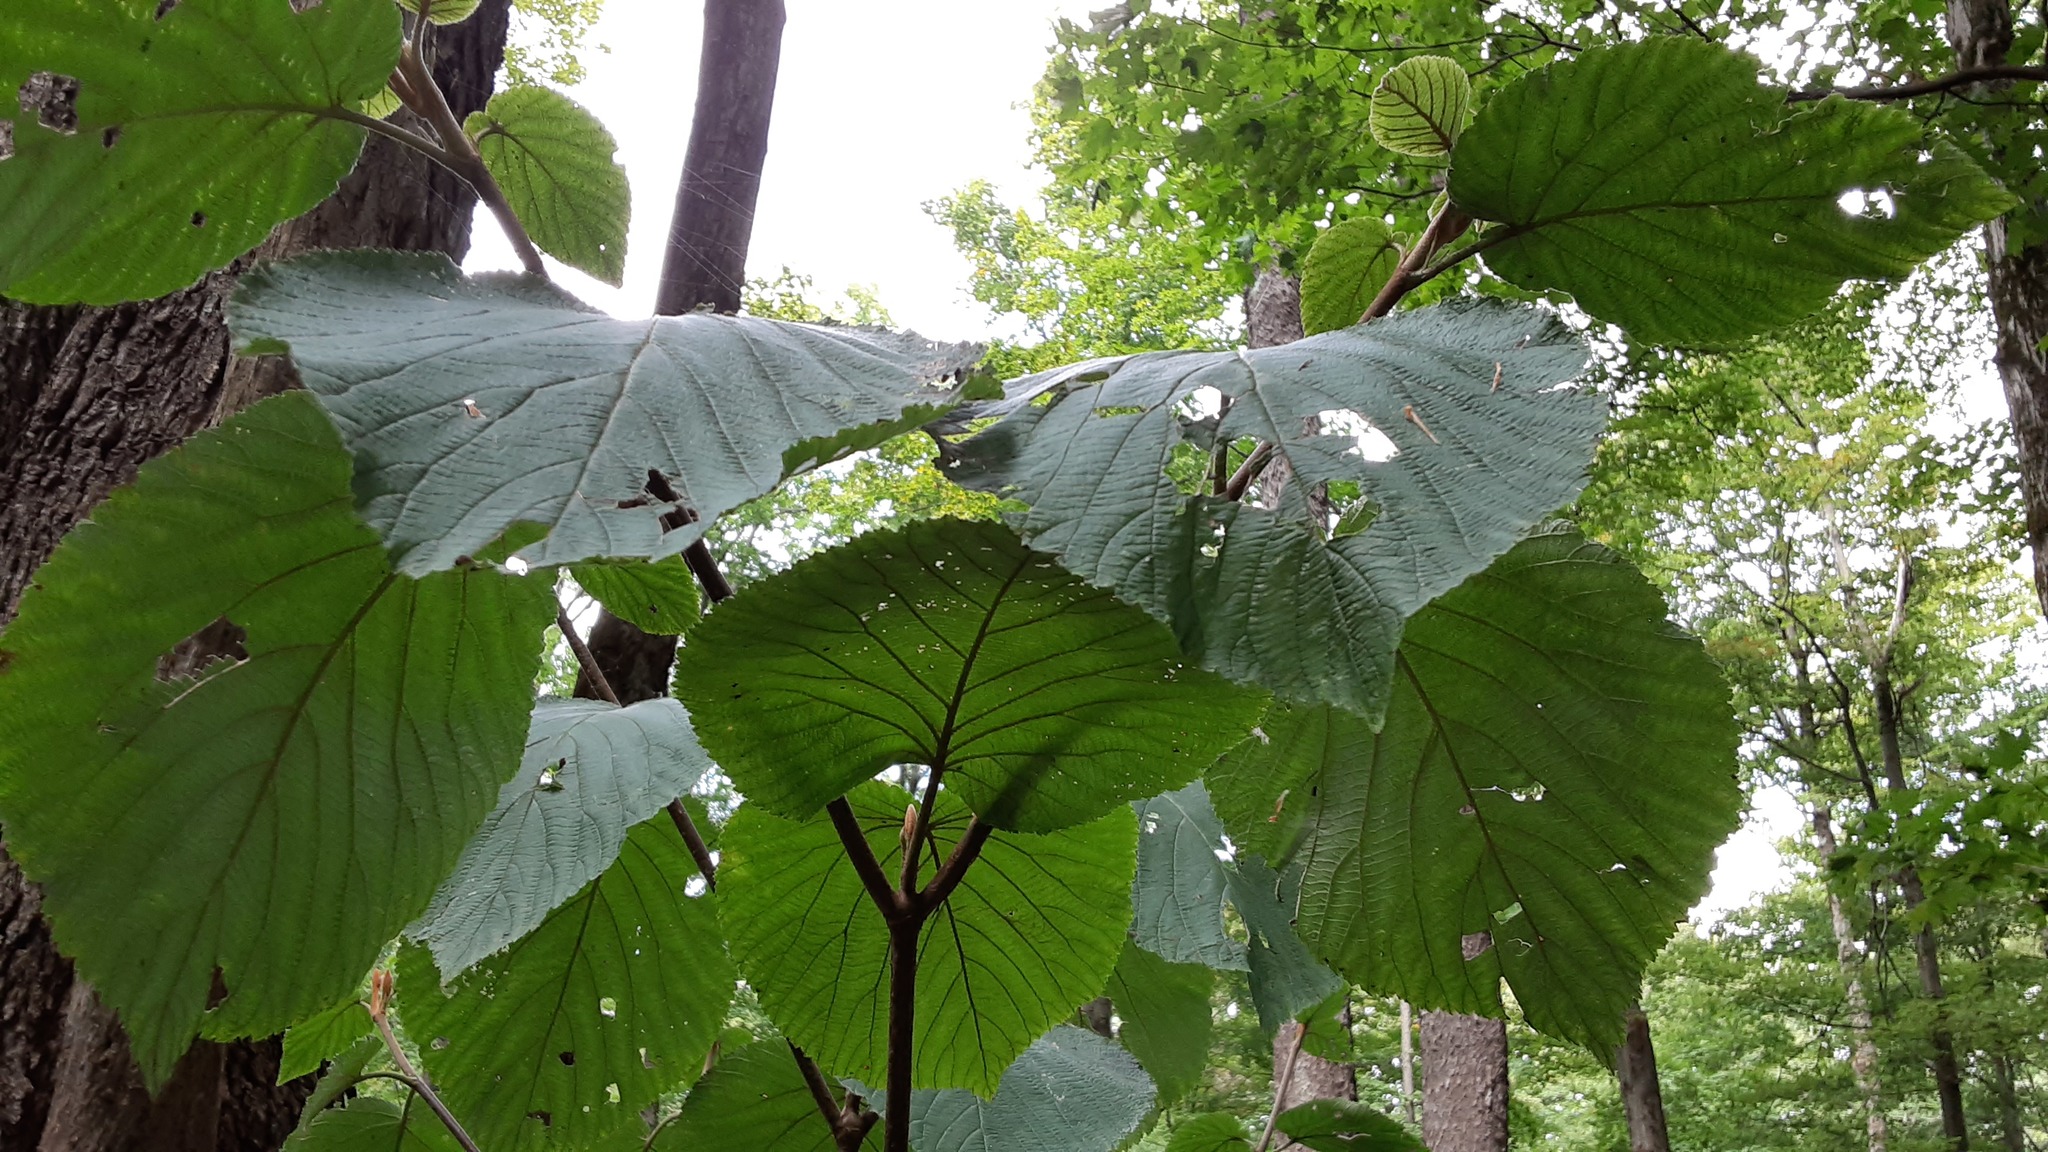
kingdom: Plantae
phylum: Tracheophyta
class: Magnoliopsida
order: Dipsacales
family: Viburnaceae
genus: Viburnum
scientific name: Viburnum lantanoides
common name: Hobblebush
